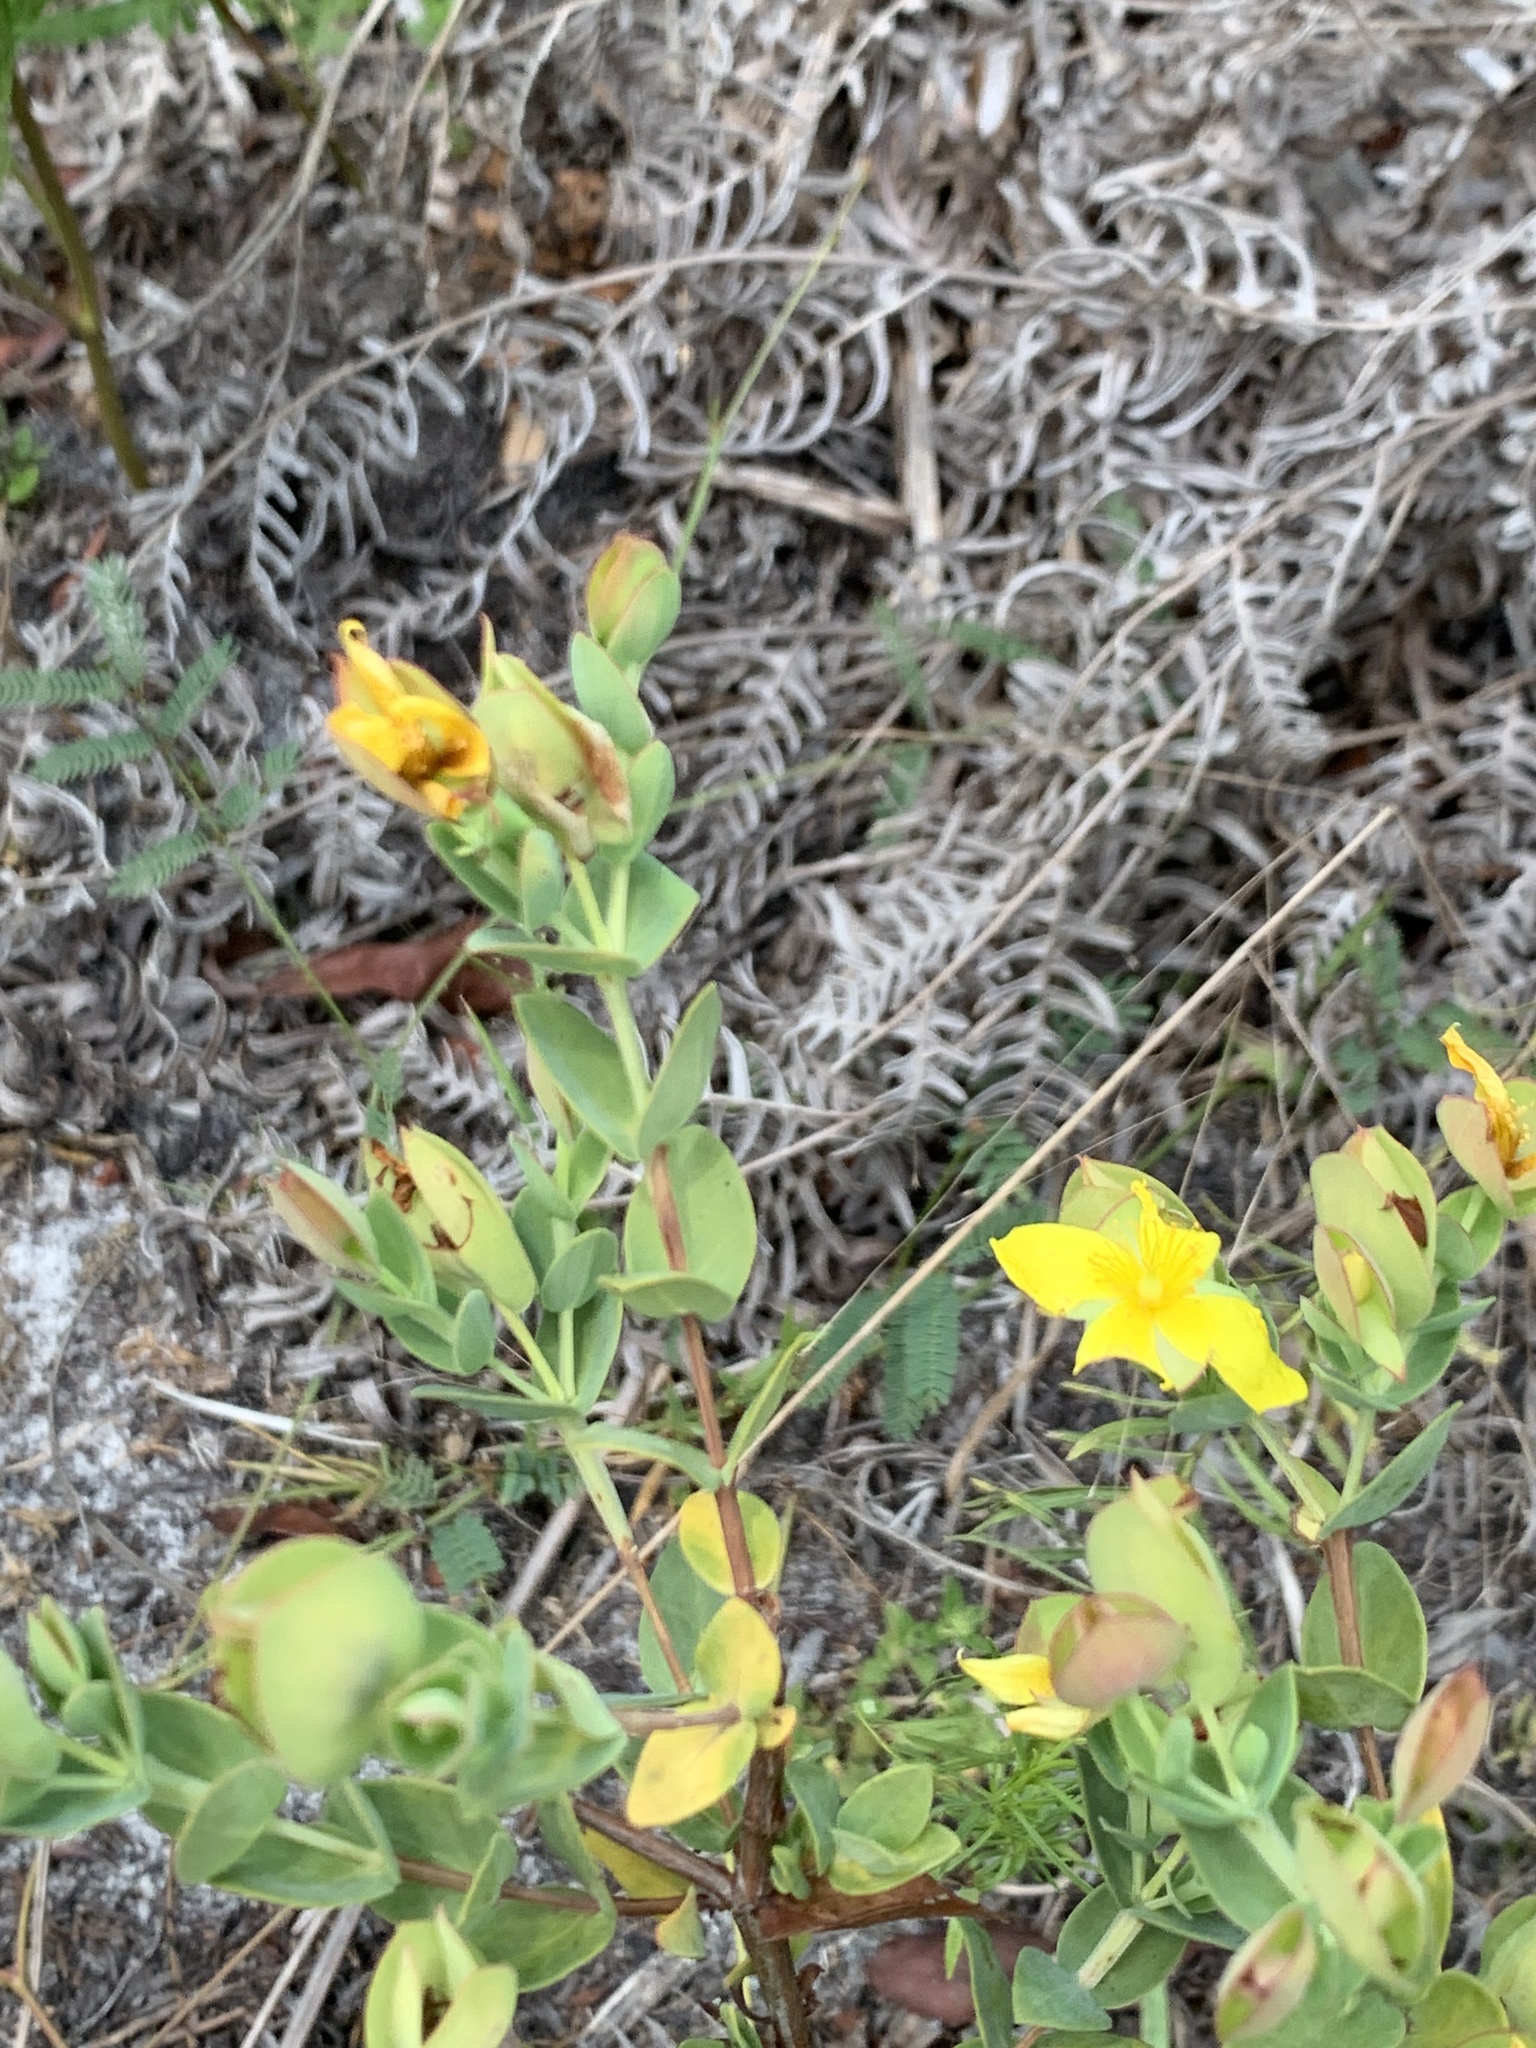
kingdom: Plantae
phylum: Tracheophyta
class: Magnoliopsida
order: Malpighiales
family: Hypericaceae
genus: Hypericum
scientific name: Hypericum tetrapetalum
